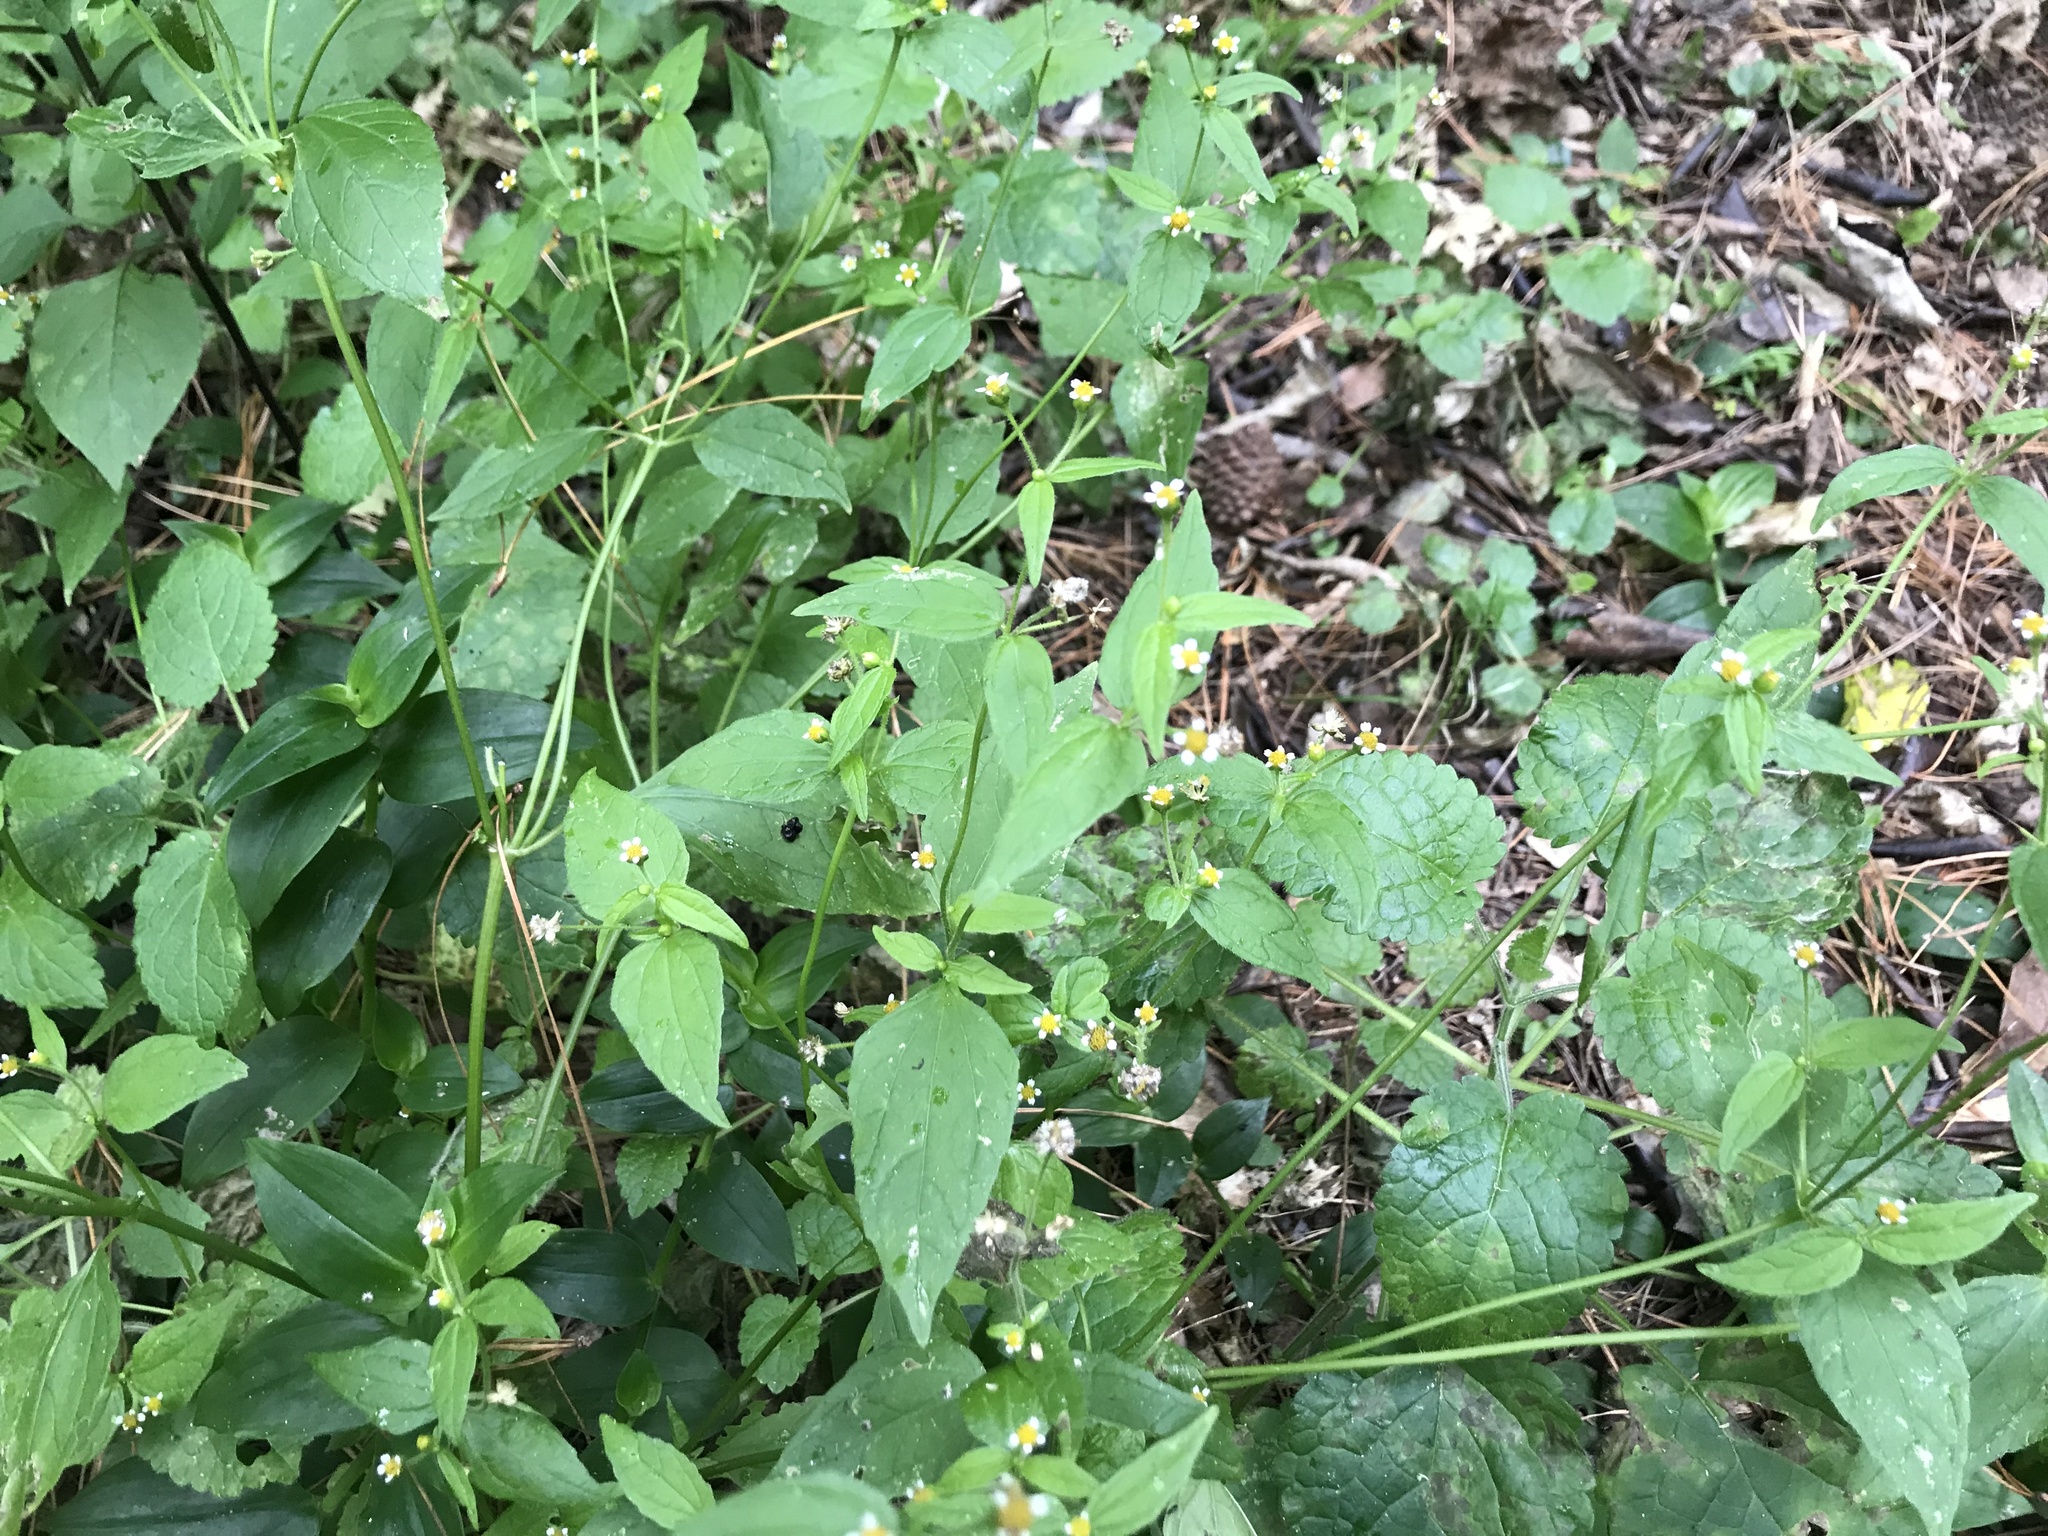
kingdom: Plantae
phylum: Tracheophyta
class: Magnoliopsida
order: Asterales
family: Asteraceae
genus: Galinsoga
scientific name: Galinsoga parviflora
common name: Gallant soldier
